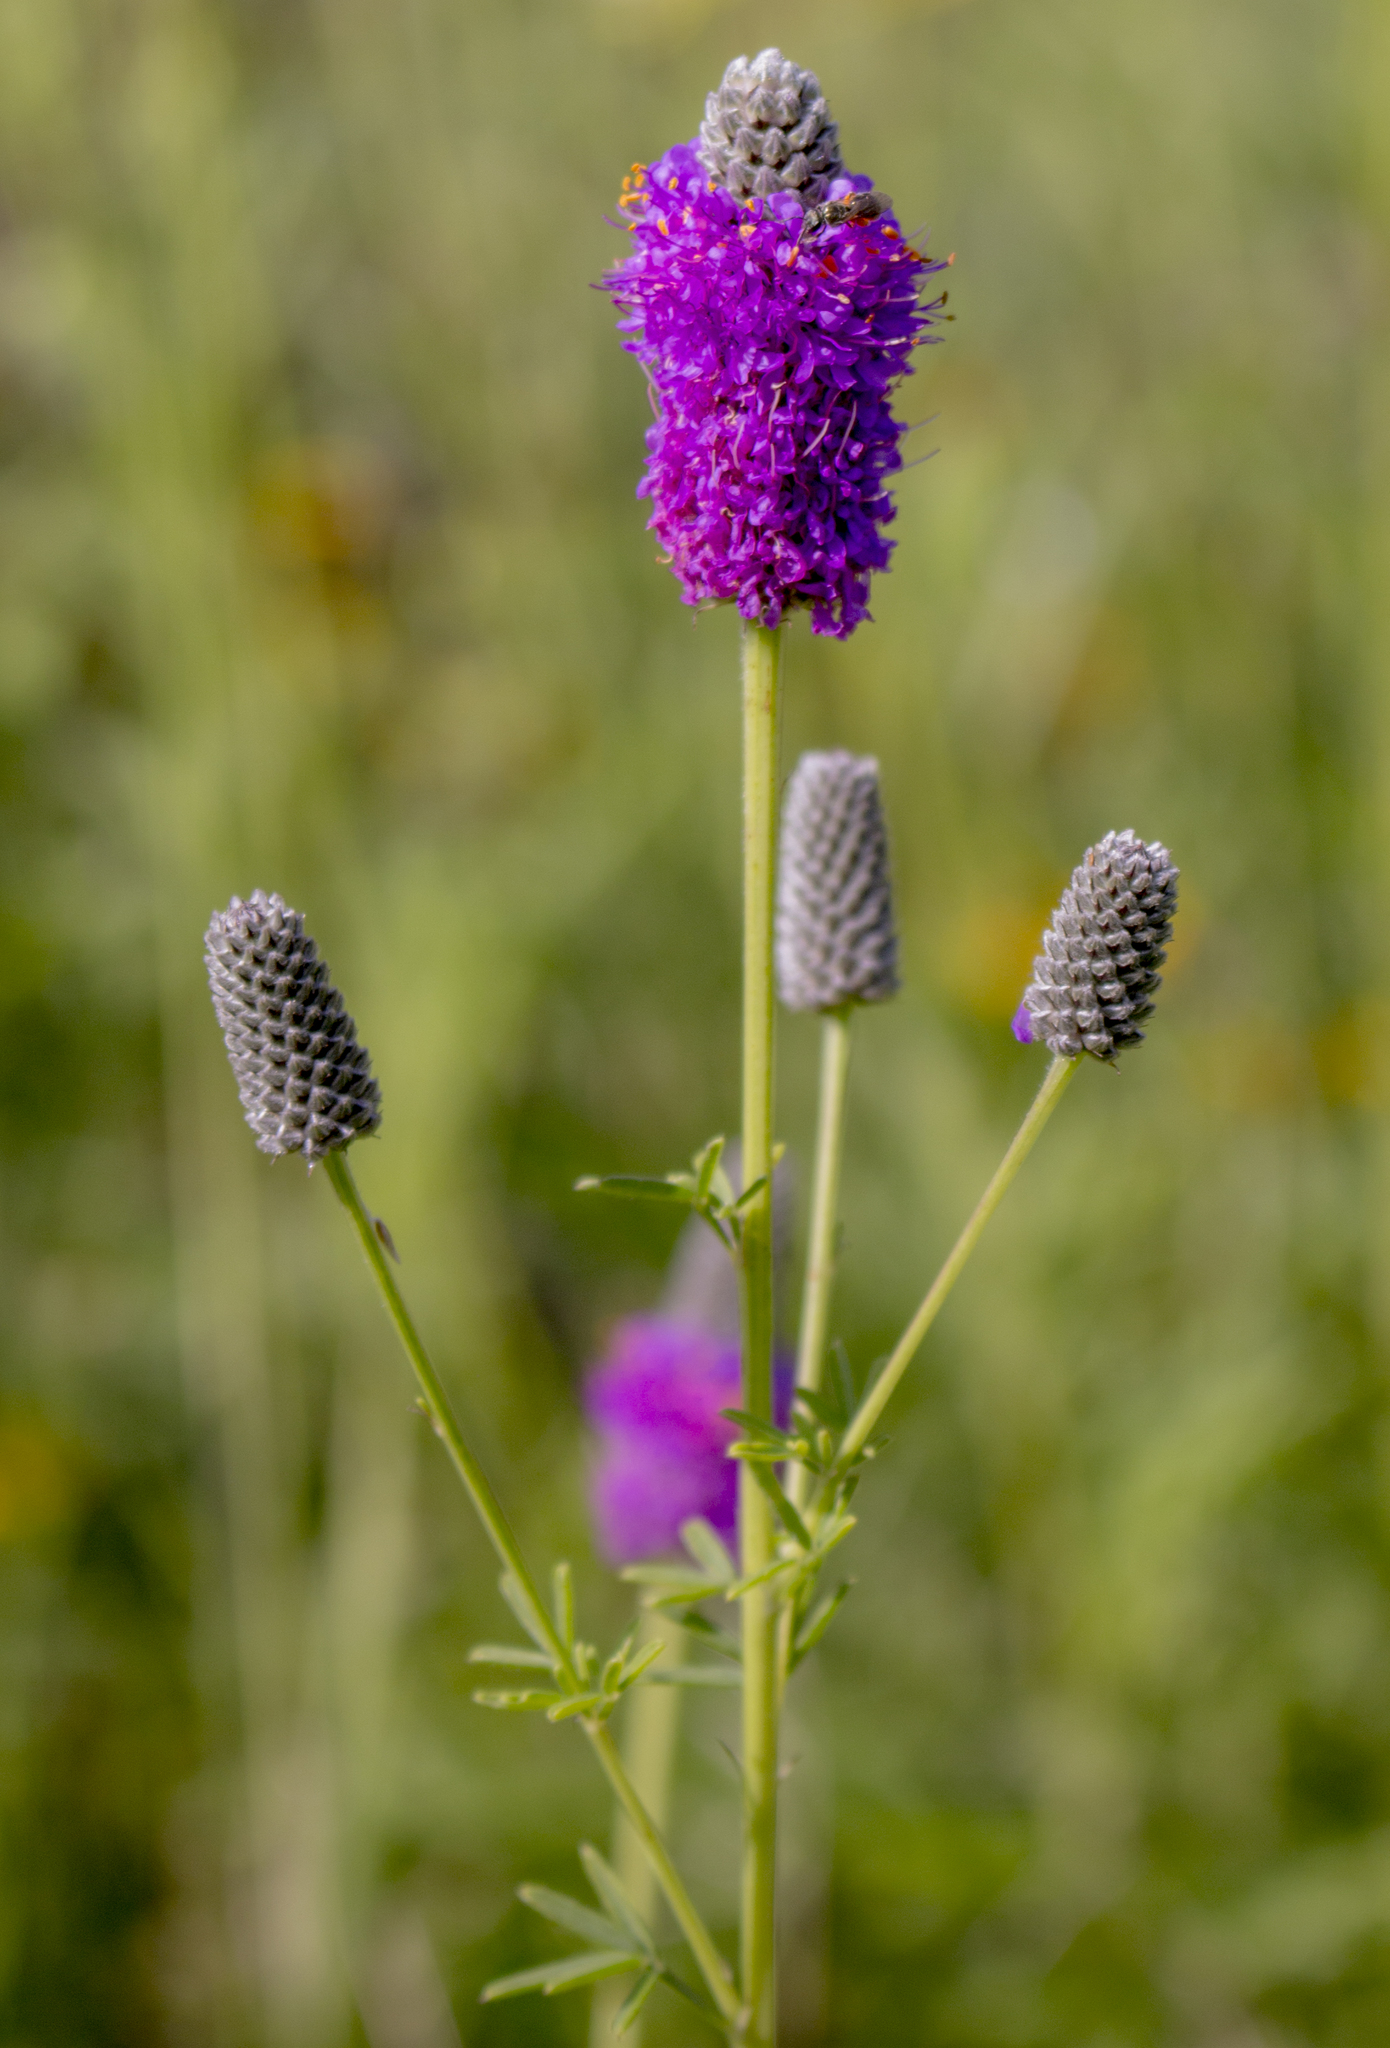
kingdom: Plantae
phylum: Tracheophyta
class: Magnoliopsida
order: Fabales
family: Fabaceae
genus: Dalea
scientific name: Dalea purpurea
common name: Purple prairie-clover
